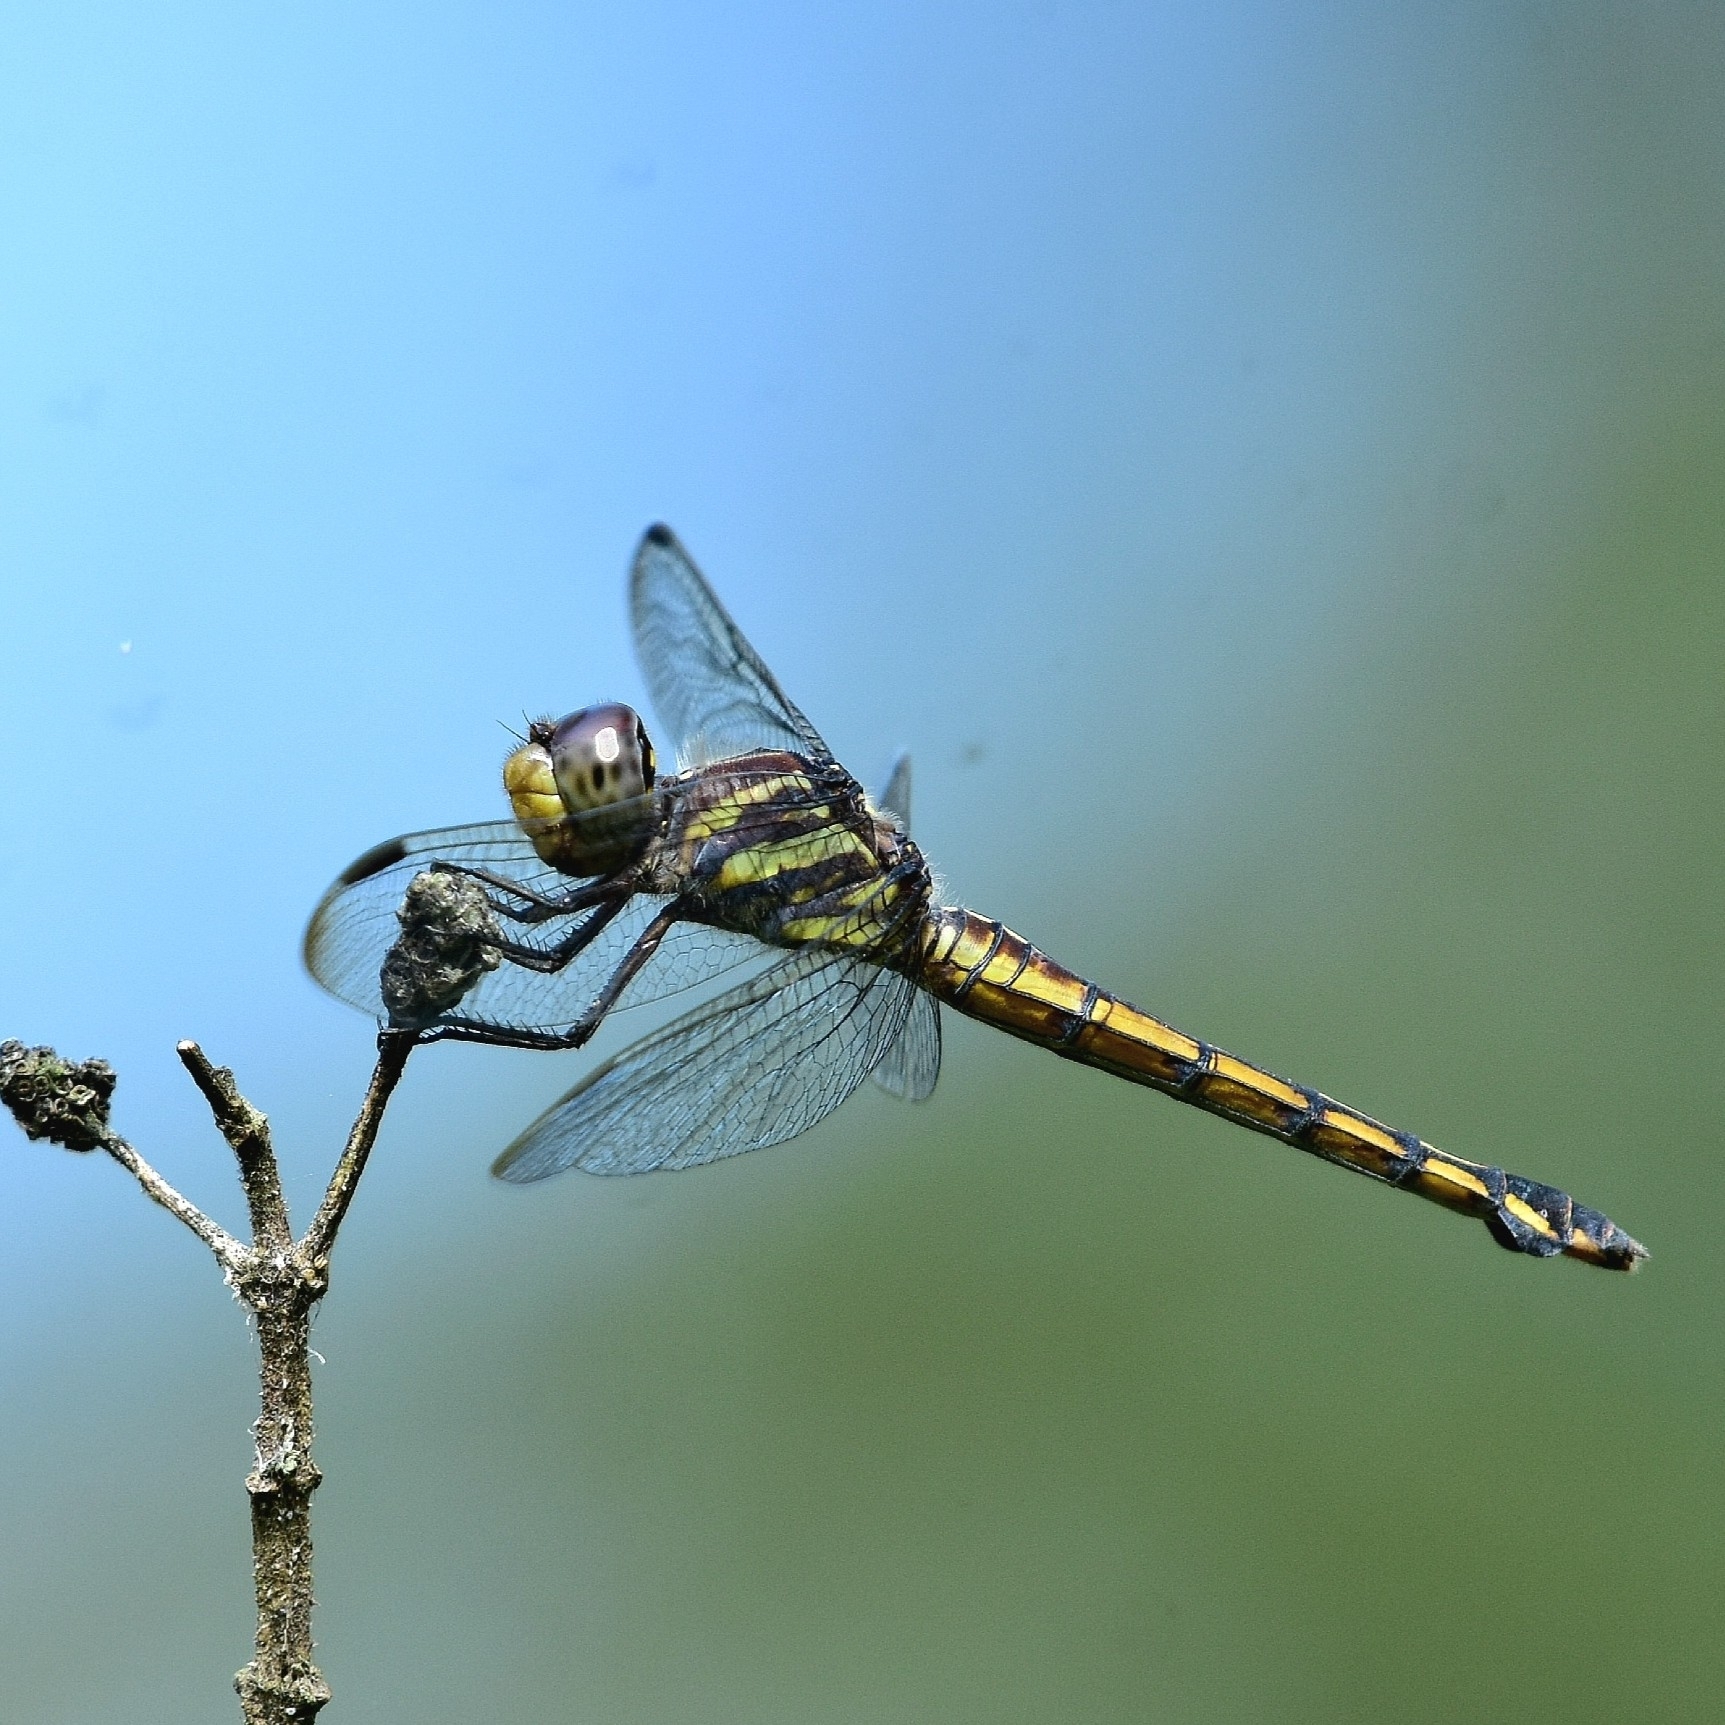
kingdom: Animalia
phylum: Arthropoda
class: Insecta
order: Odonata
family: Libellulidae
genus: Potamarcha
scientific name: Potamarcha congener
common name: Blue chaser
